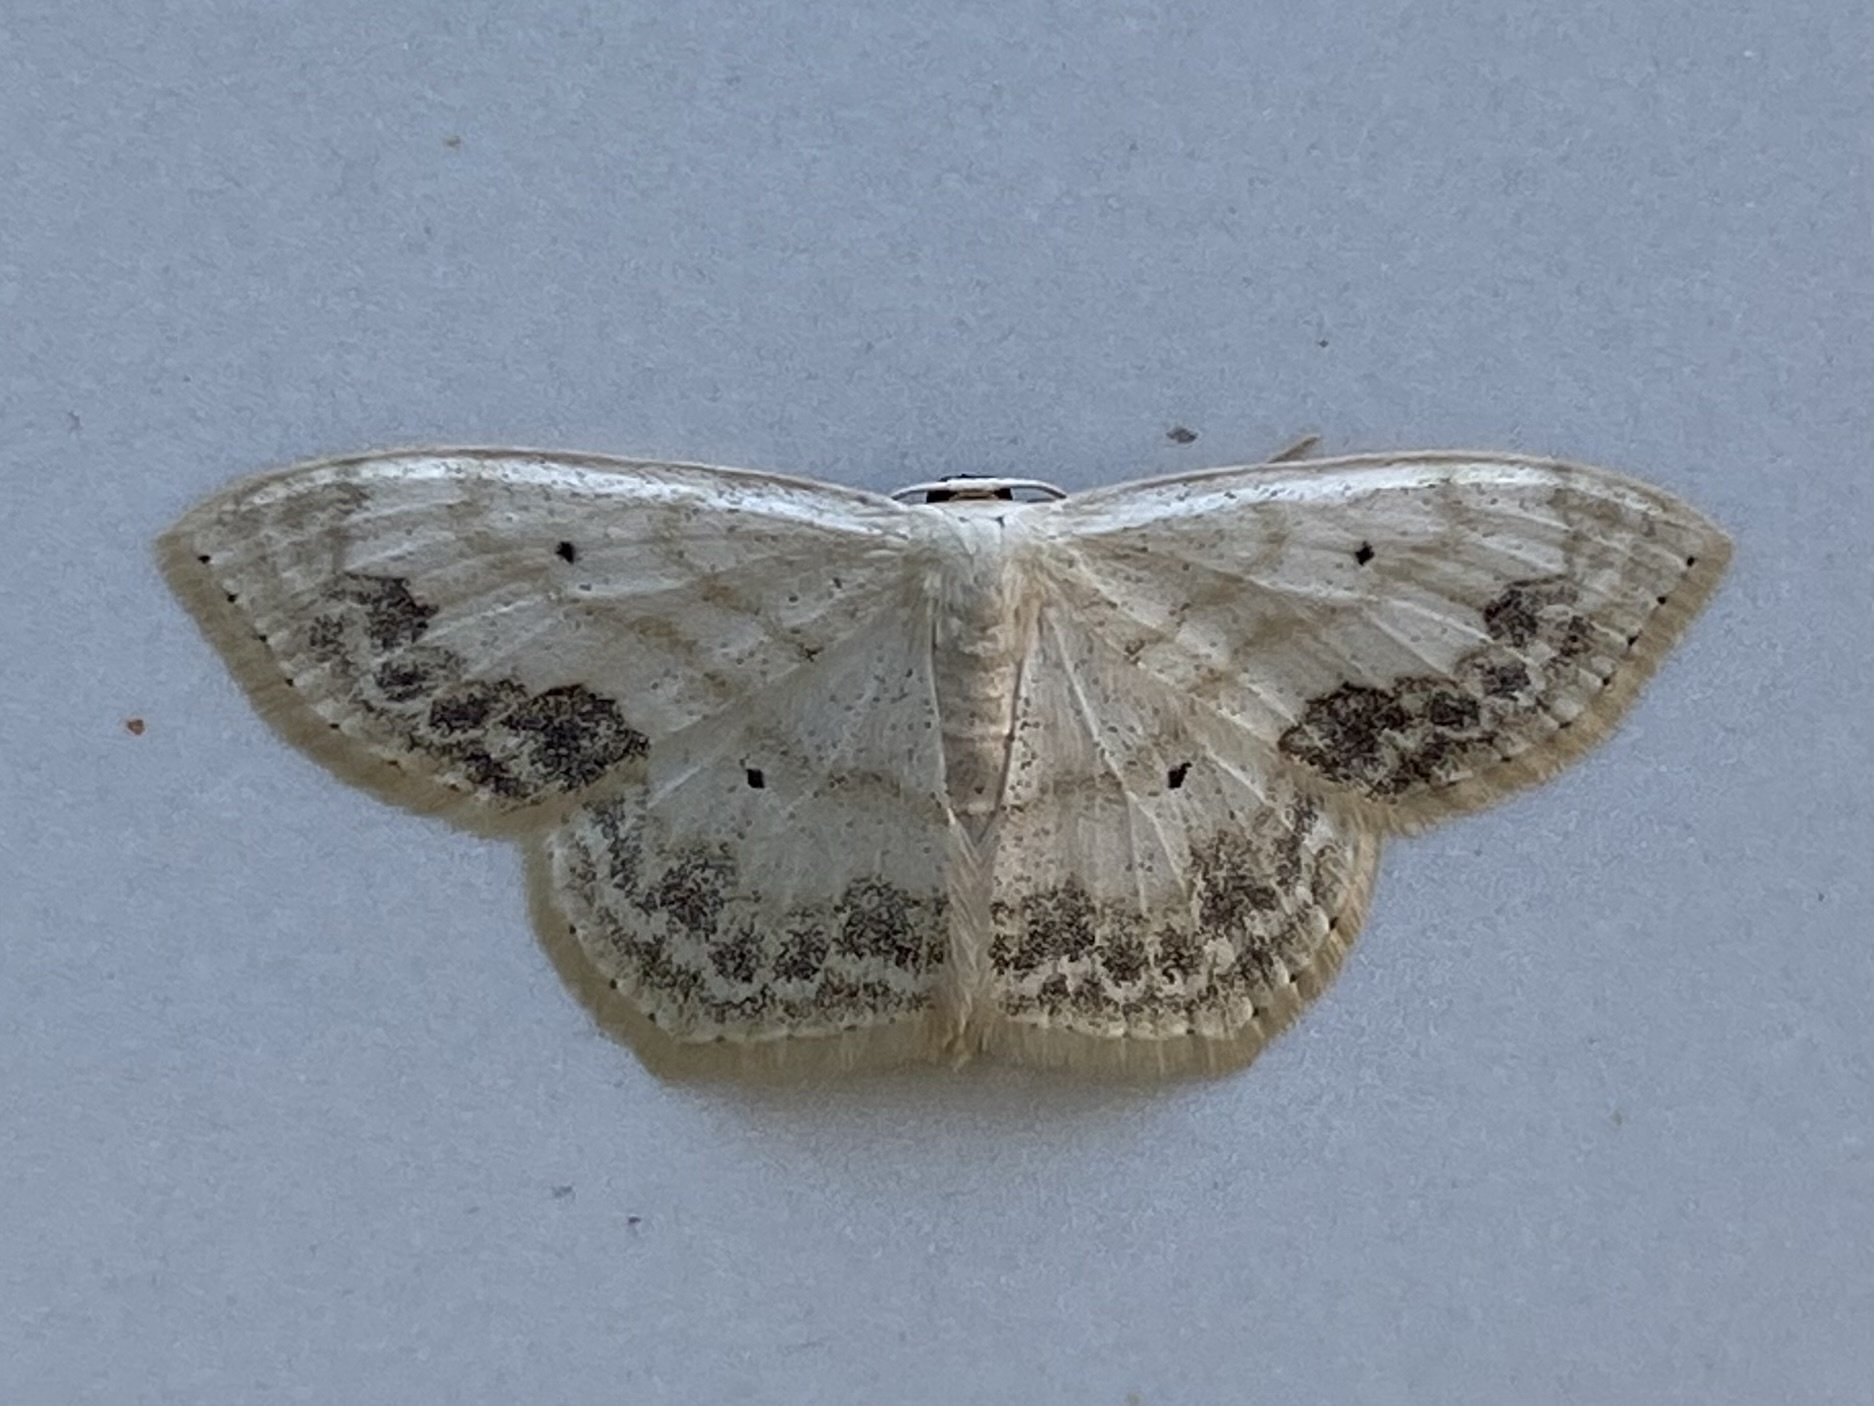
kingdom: Animalia
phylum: Arthropoda
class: Insecta
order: Lepidoptera
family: Geometridae
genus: Scopula
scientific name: Scopula limboundata
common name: Large lace border
